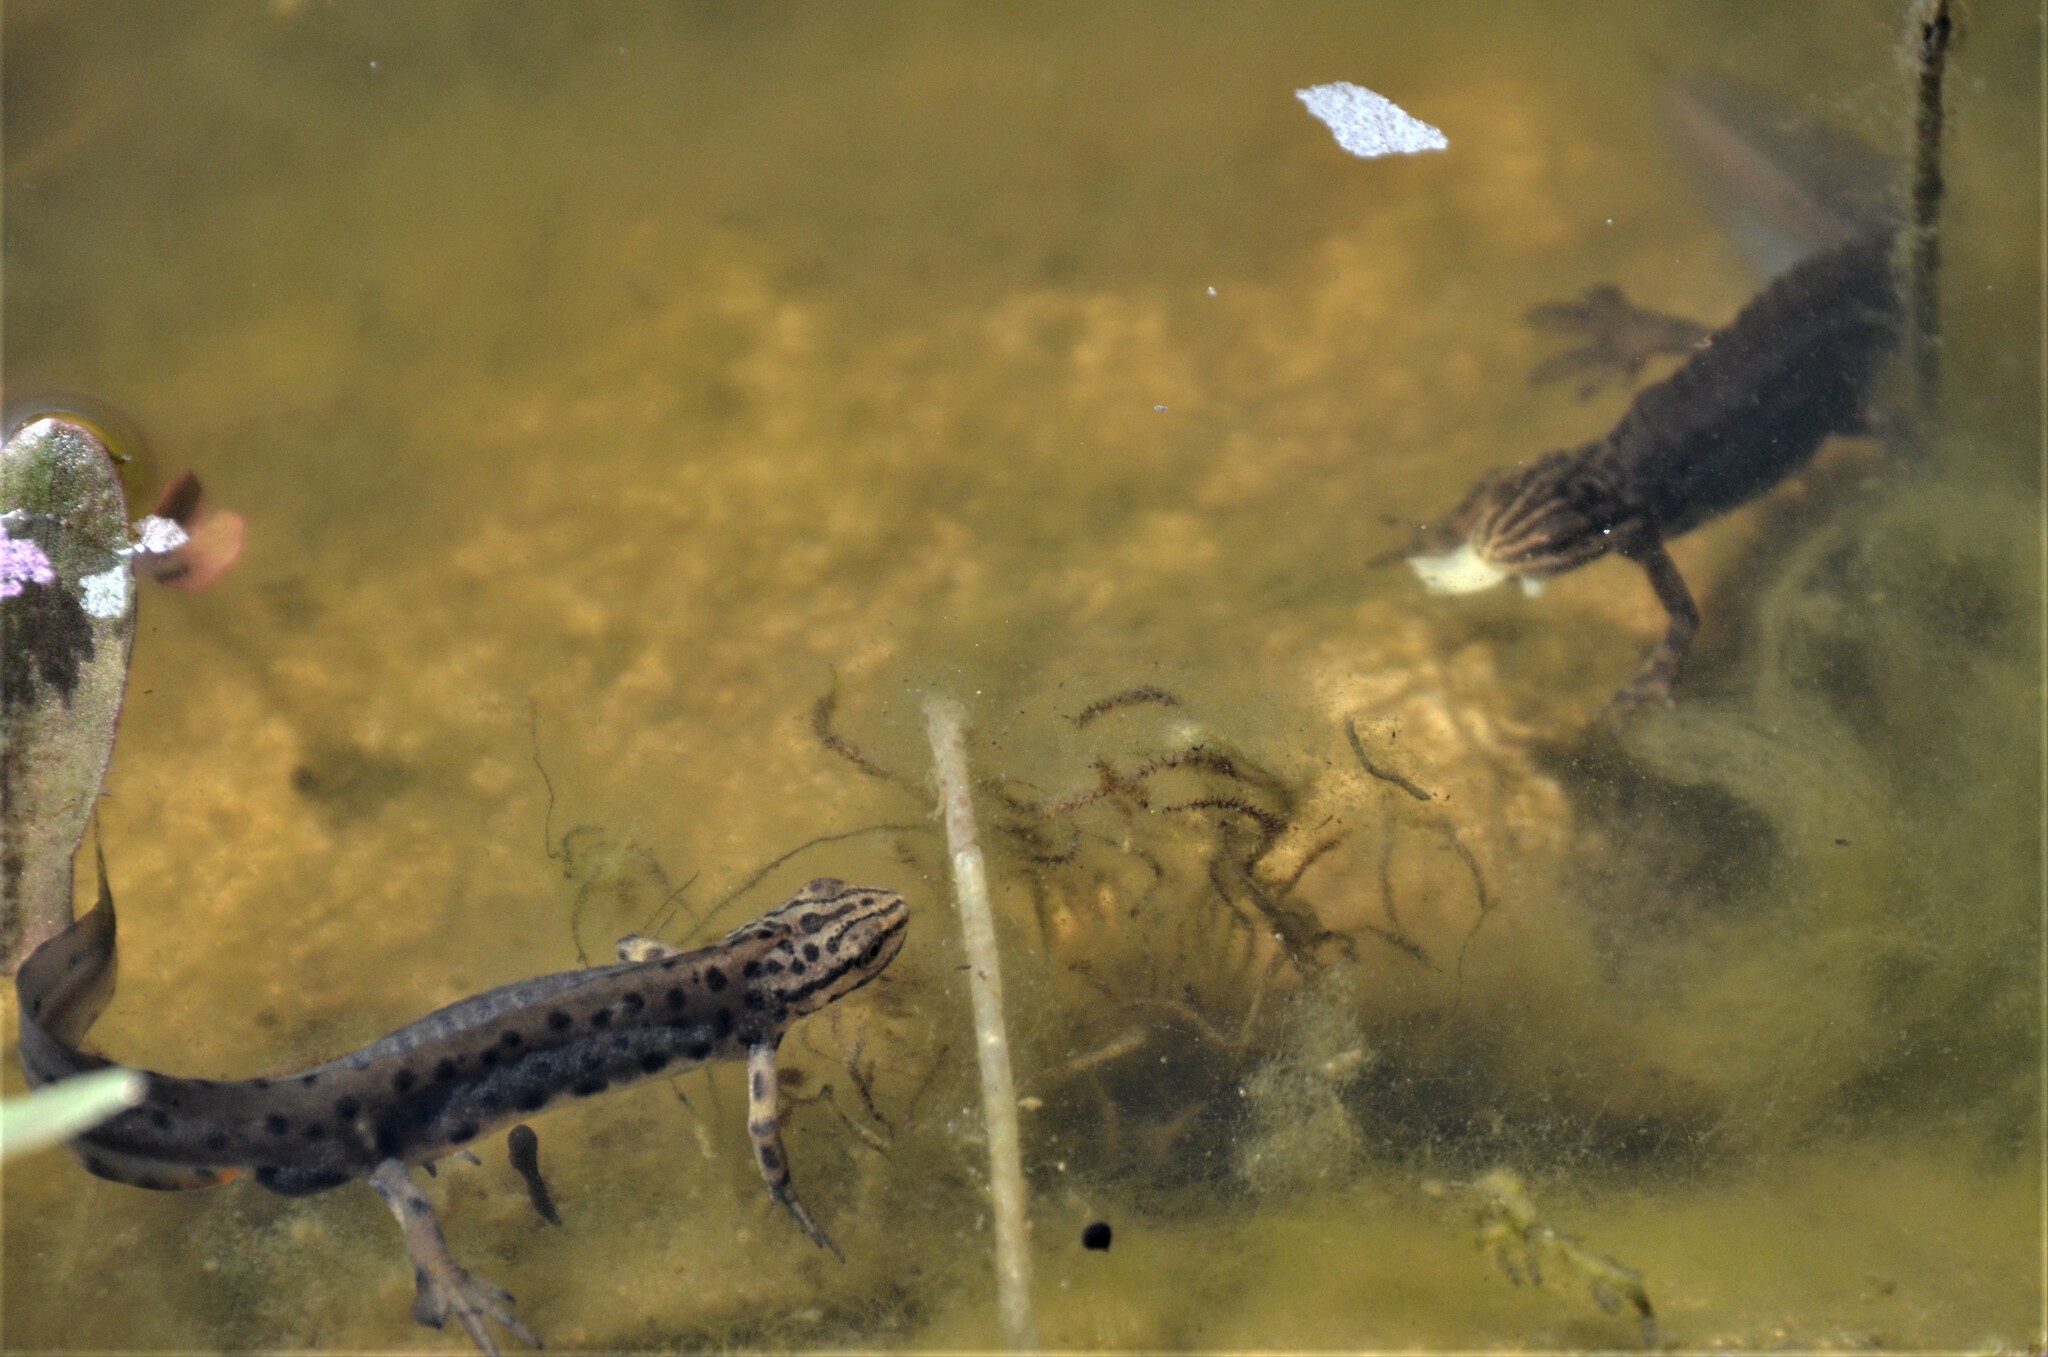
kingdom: Animalia
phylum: Chordata
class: Amphibia
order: Caudata
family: Salamandridae
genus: Lissotriton
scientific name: Lissotriton vulgaris
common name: Smooth newt
